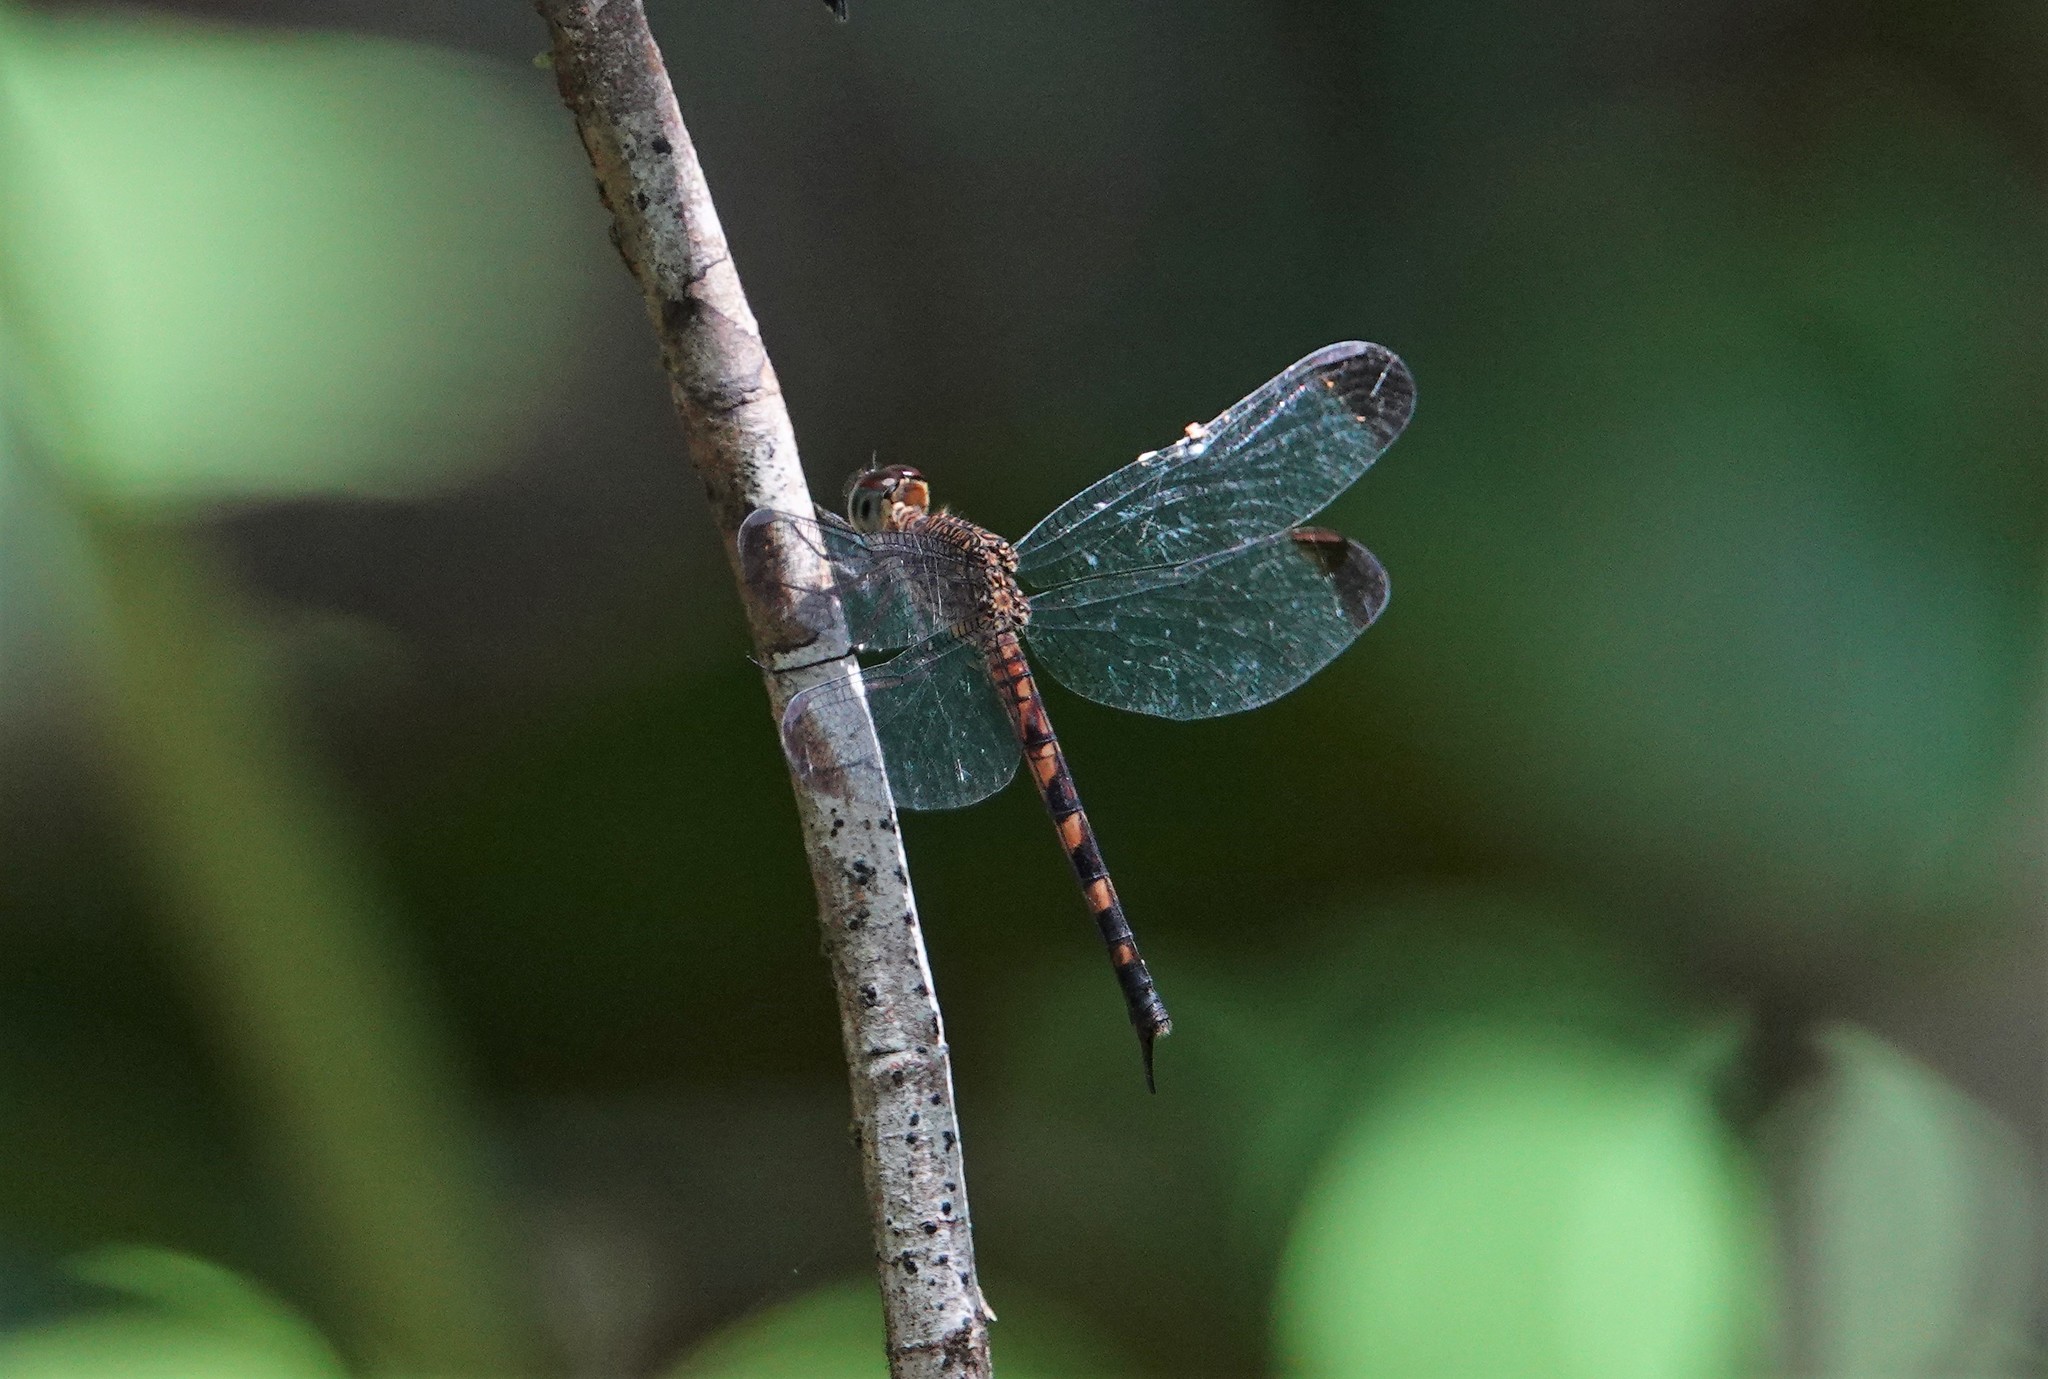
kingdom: Animalia
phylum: Arthropoda
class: Insecta
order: Odonata
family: Libellulidae
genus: Uracis
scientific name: Uracis imbuta
